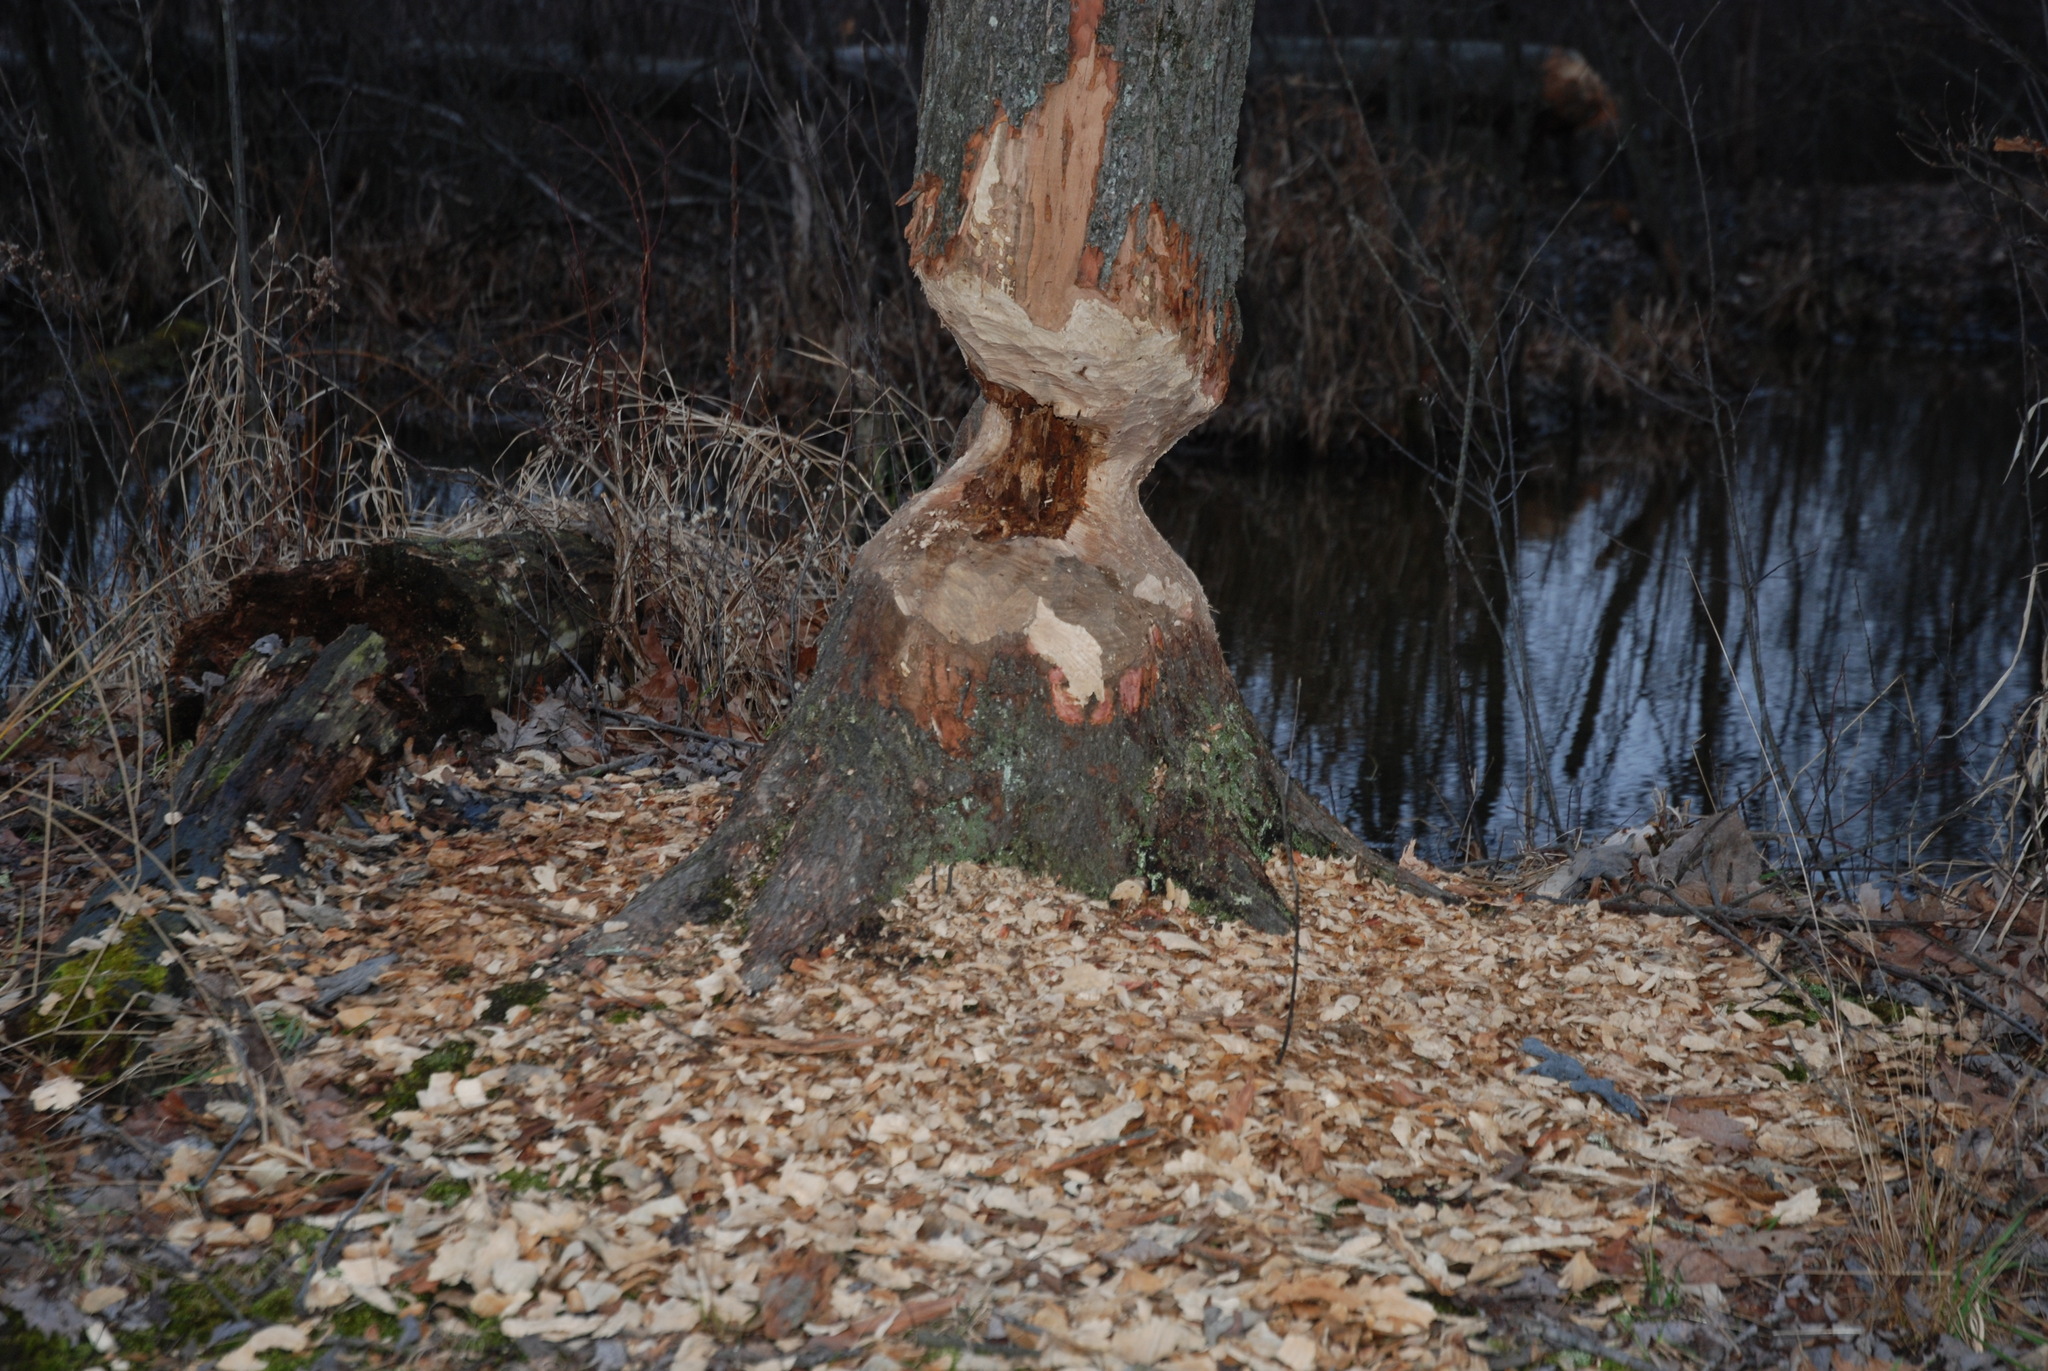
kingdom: Animalia
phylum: Chordata
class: Mammalia
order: Rodentia
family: Castoridae
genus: Castor
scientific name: Castor canadensis
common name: American beaver
